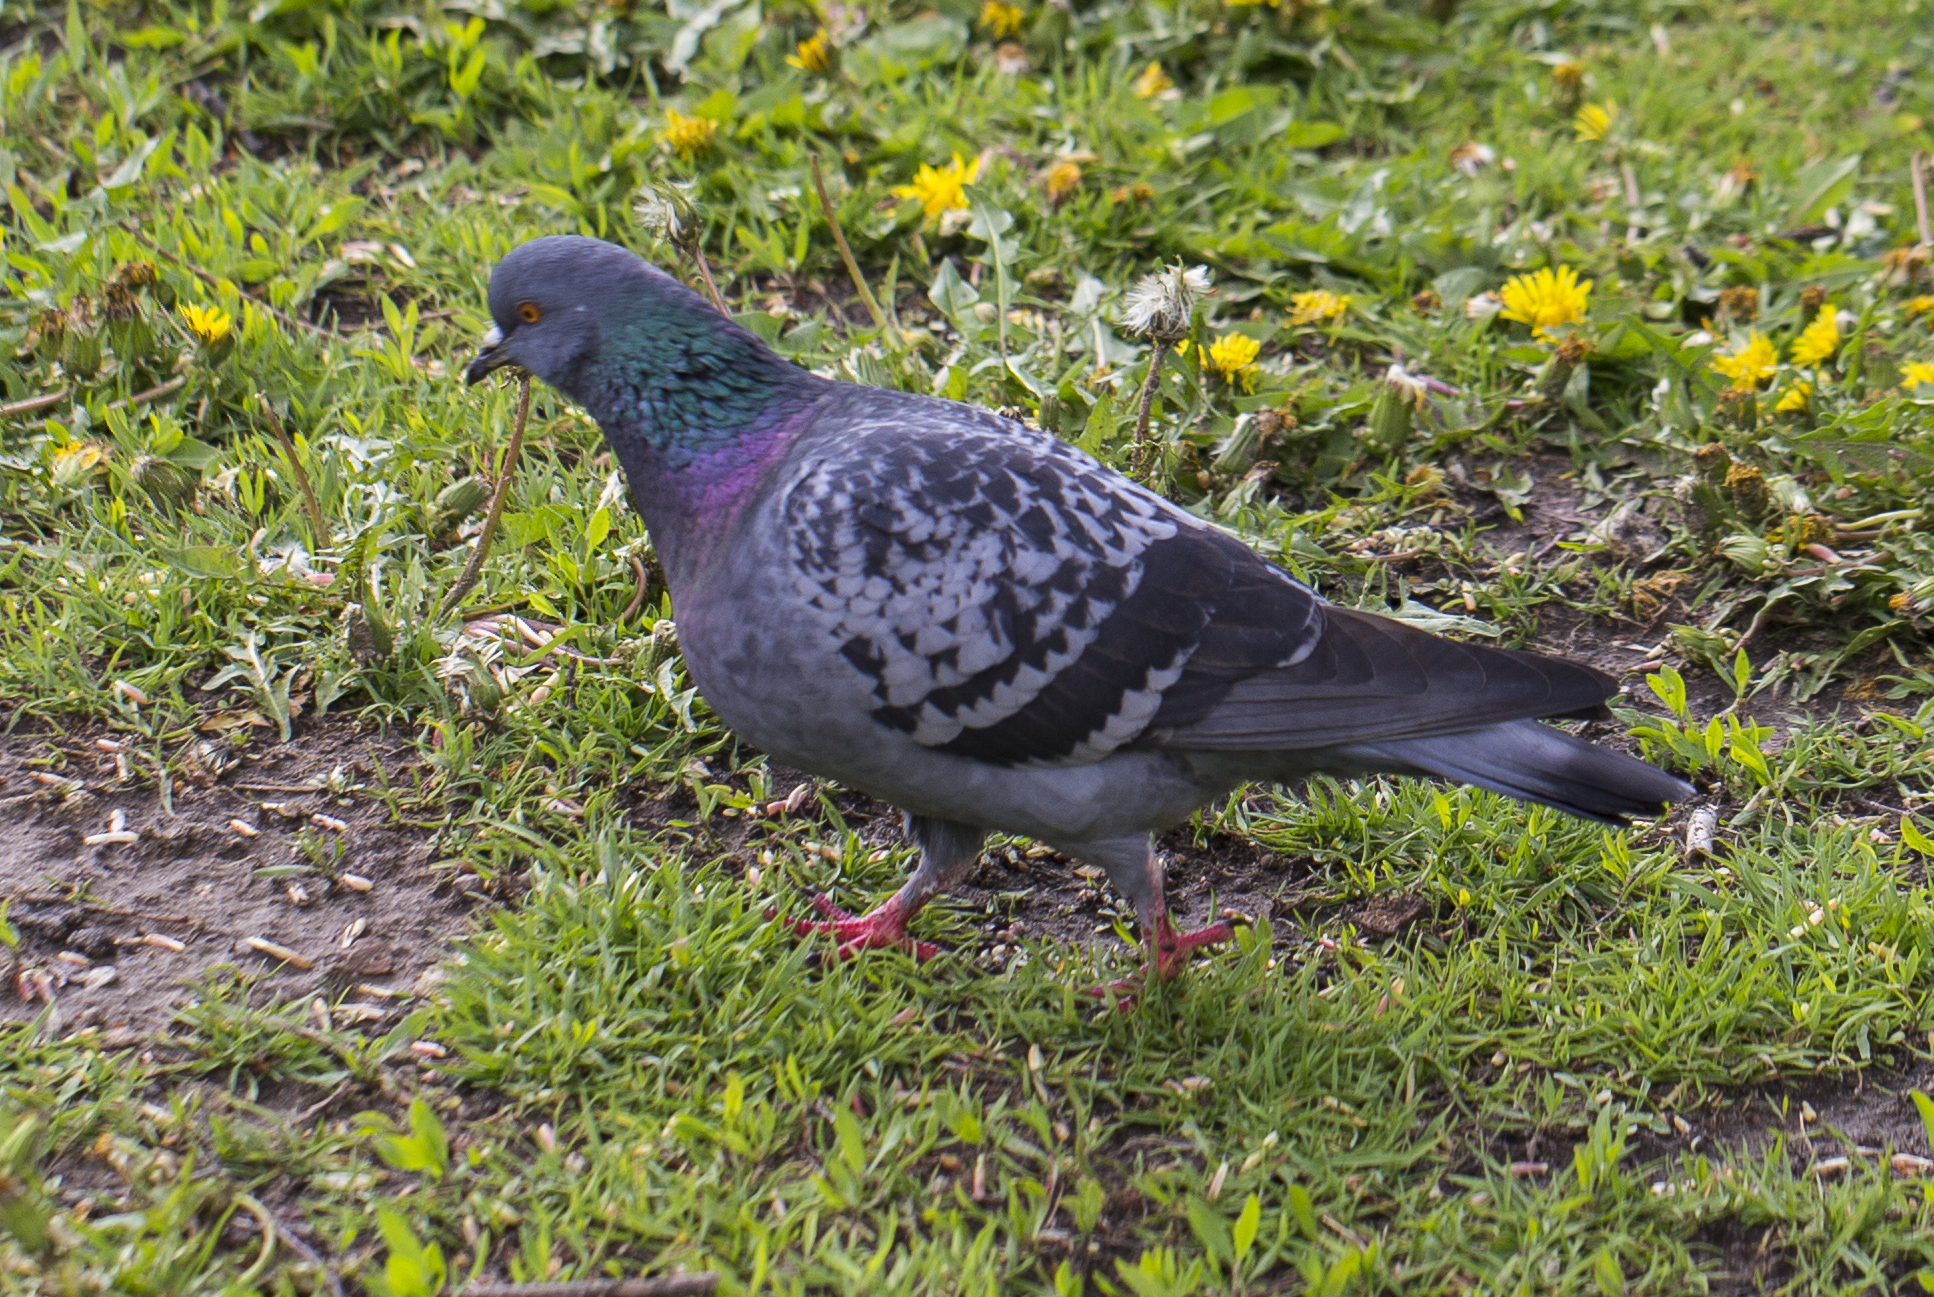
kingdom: Animalia
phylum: Chordata
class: Aves
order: Columbiformes
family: Columbidae
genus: Columba
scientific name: Columba livia
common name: Rock pigeon
